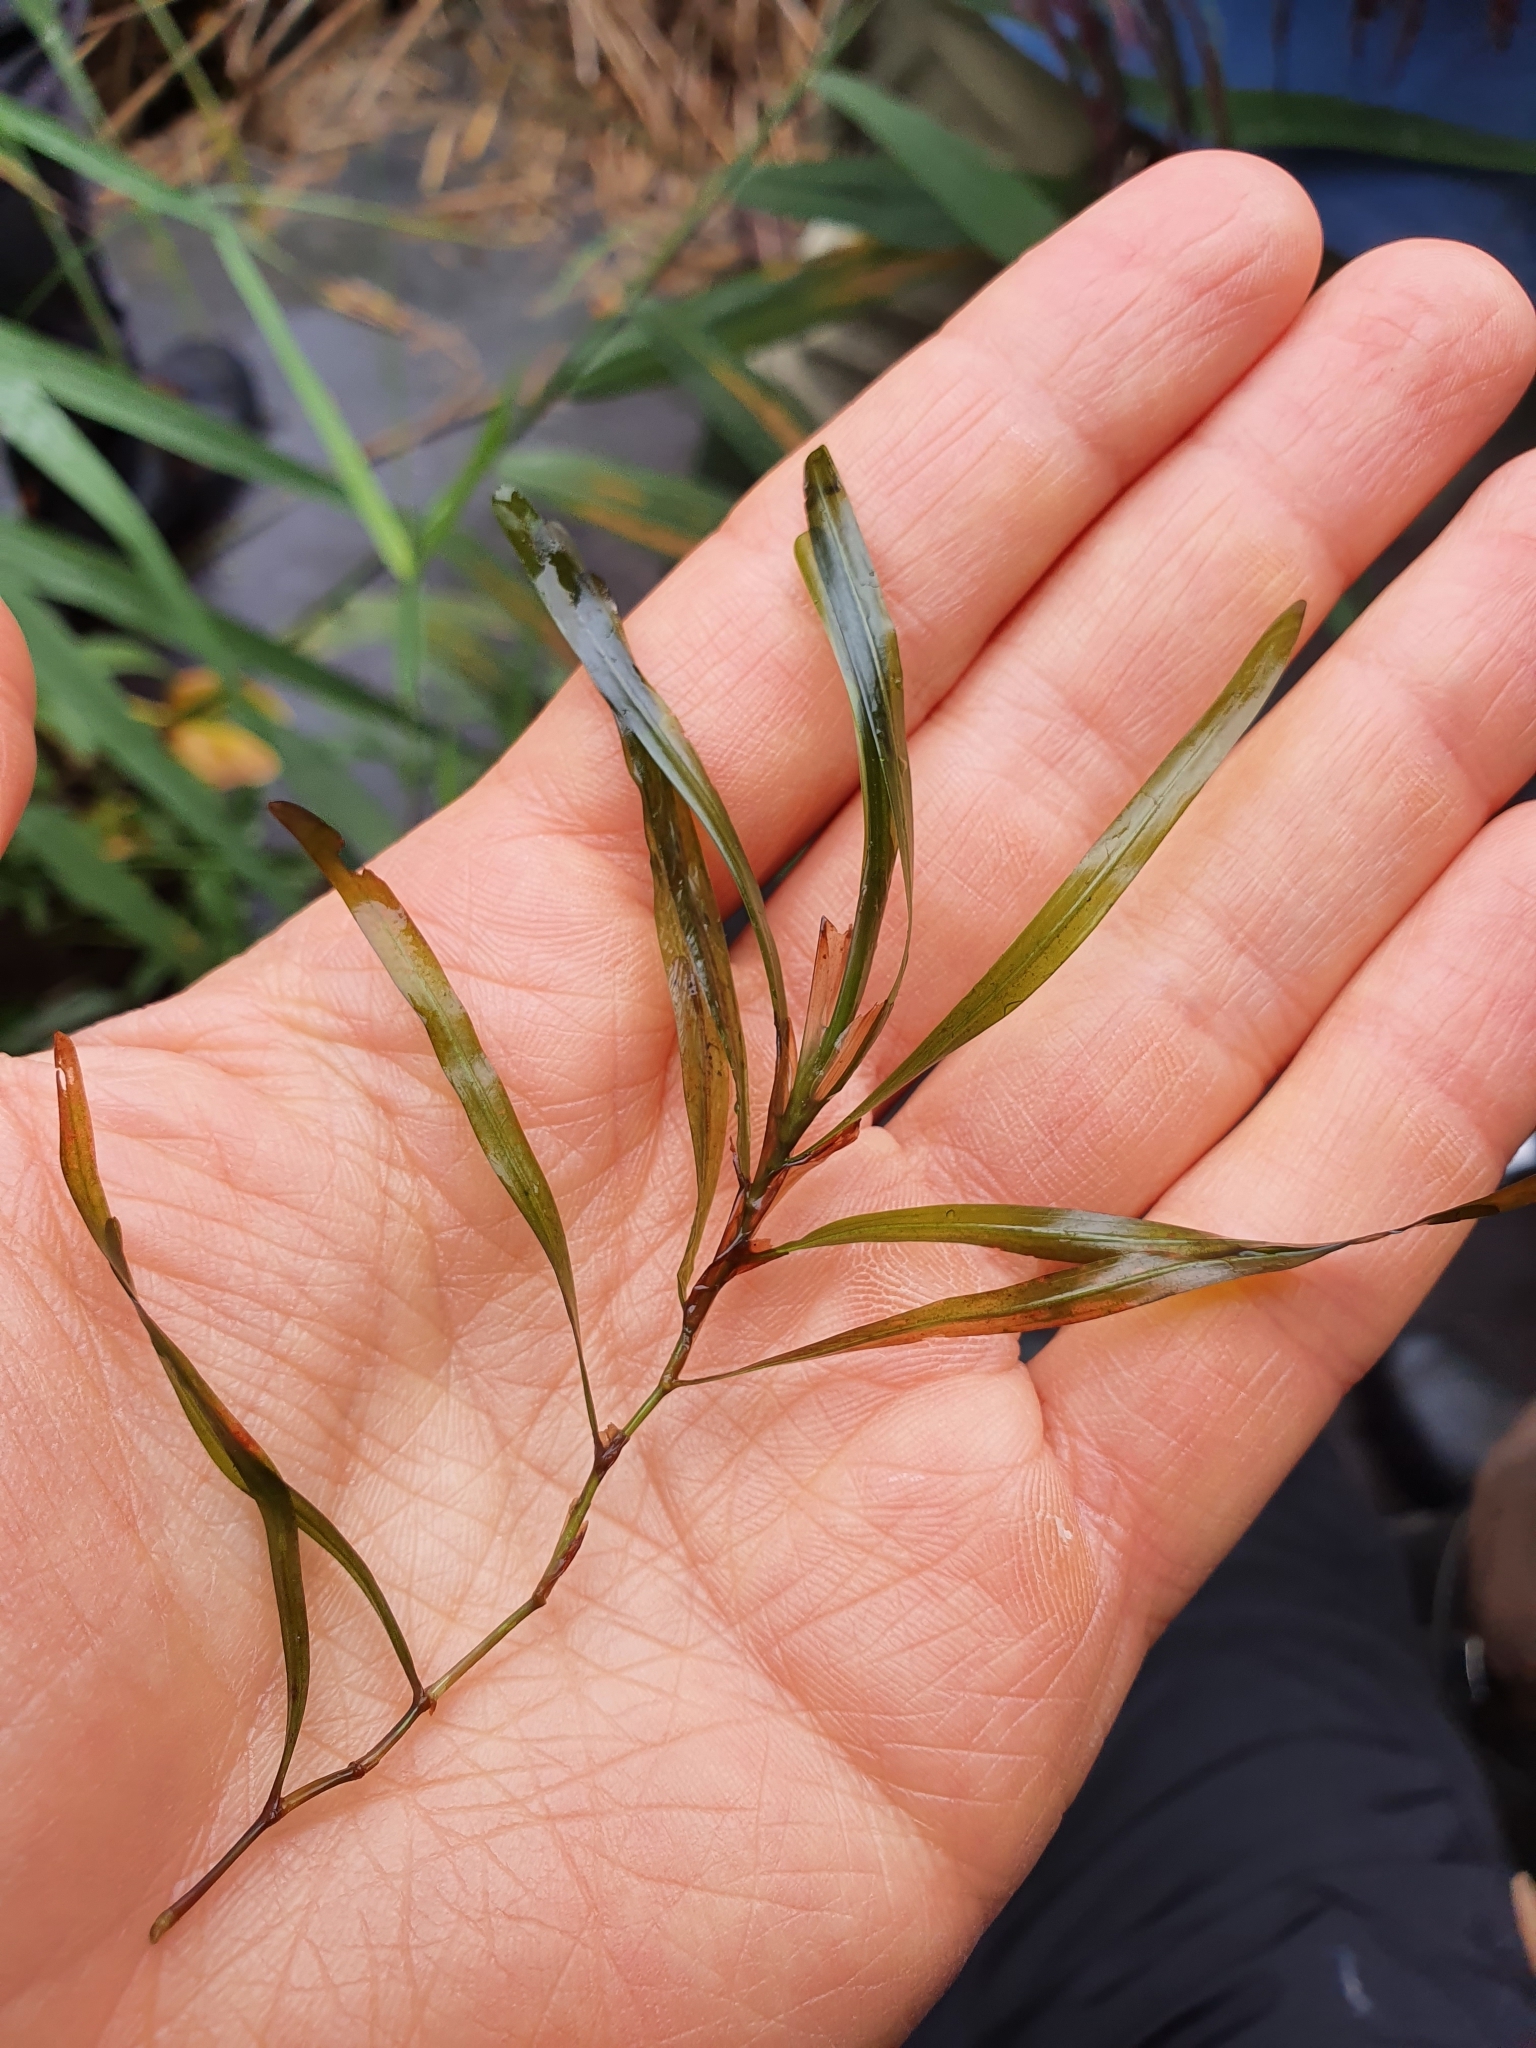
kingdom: Plantae
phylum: Tracheophyta
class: Liliopsida
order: Alismatales
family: Potamogetonaceae
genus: Potamogeton
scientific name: Potamogeton obtusifolius
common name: Blunt-leaved pondweed
